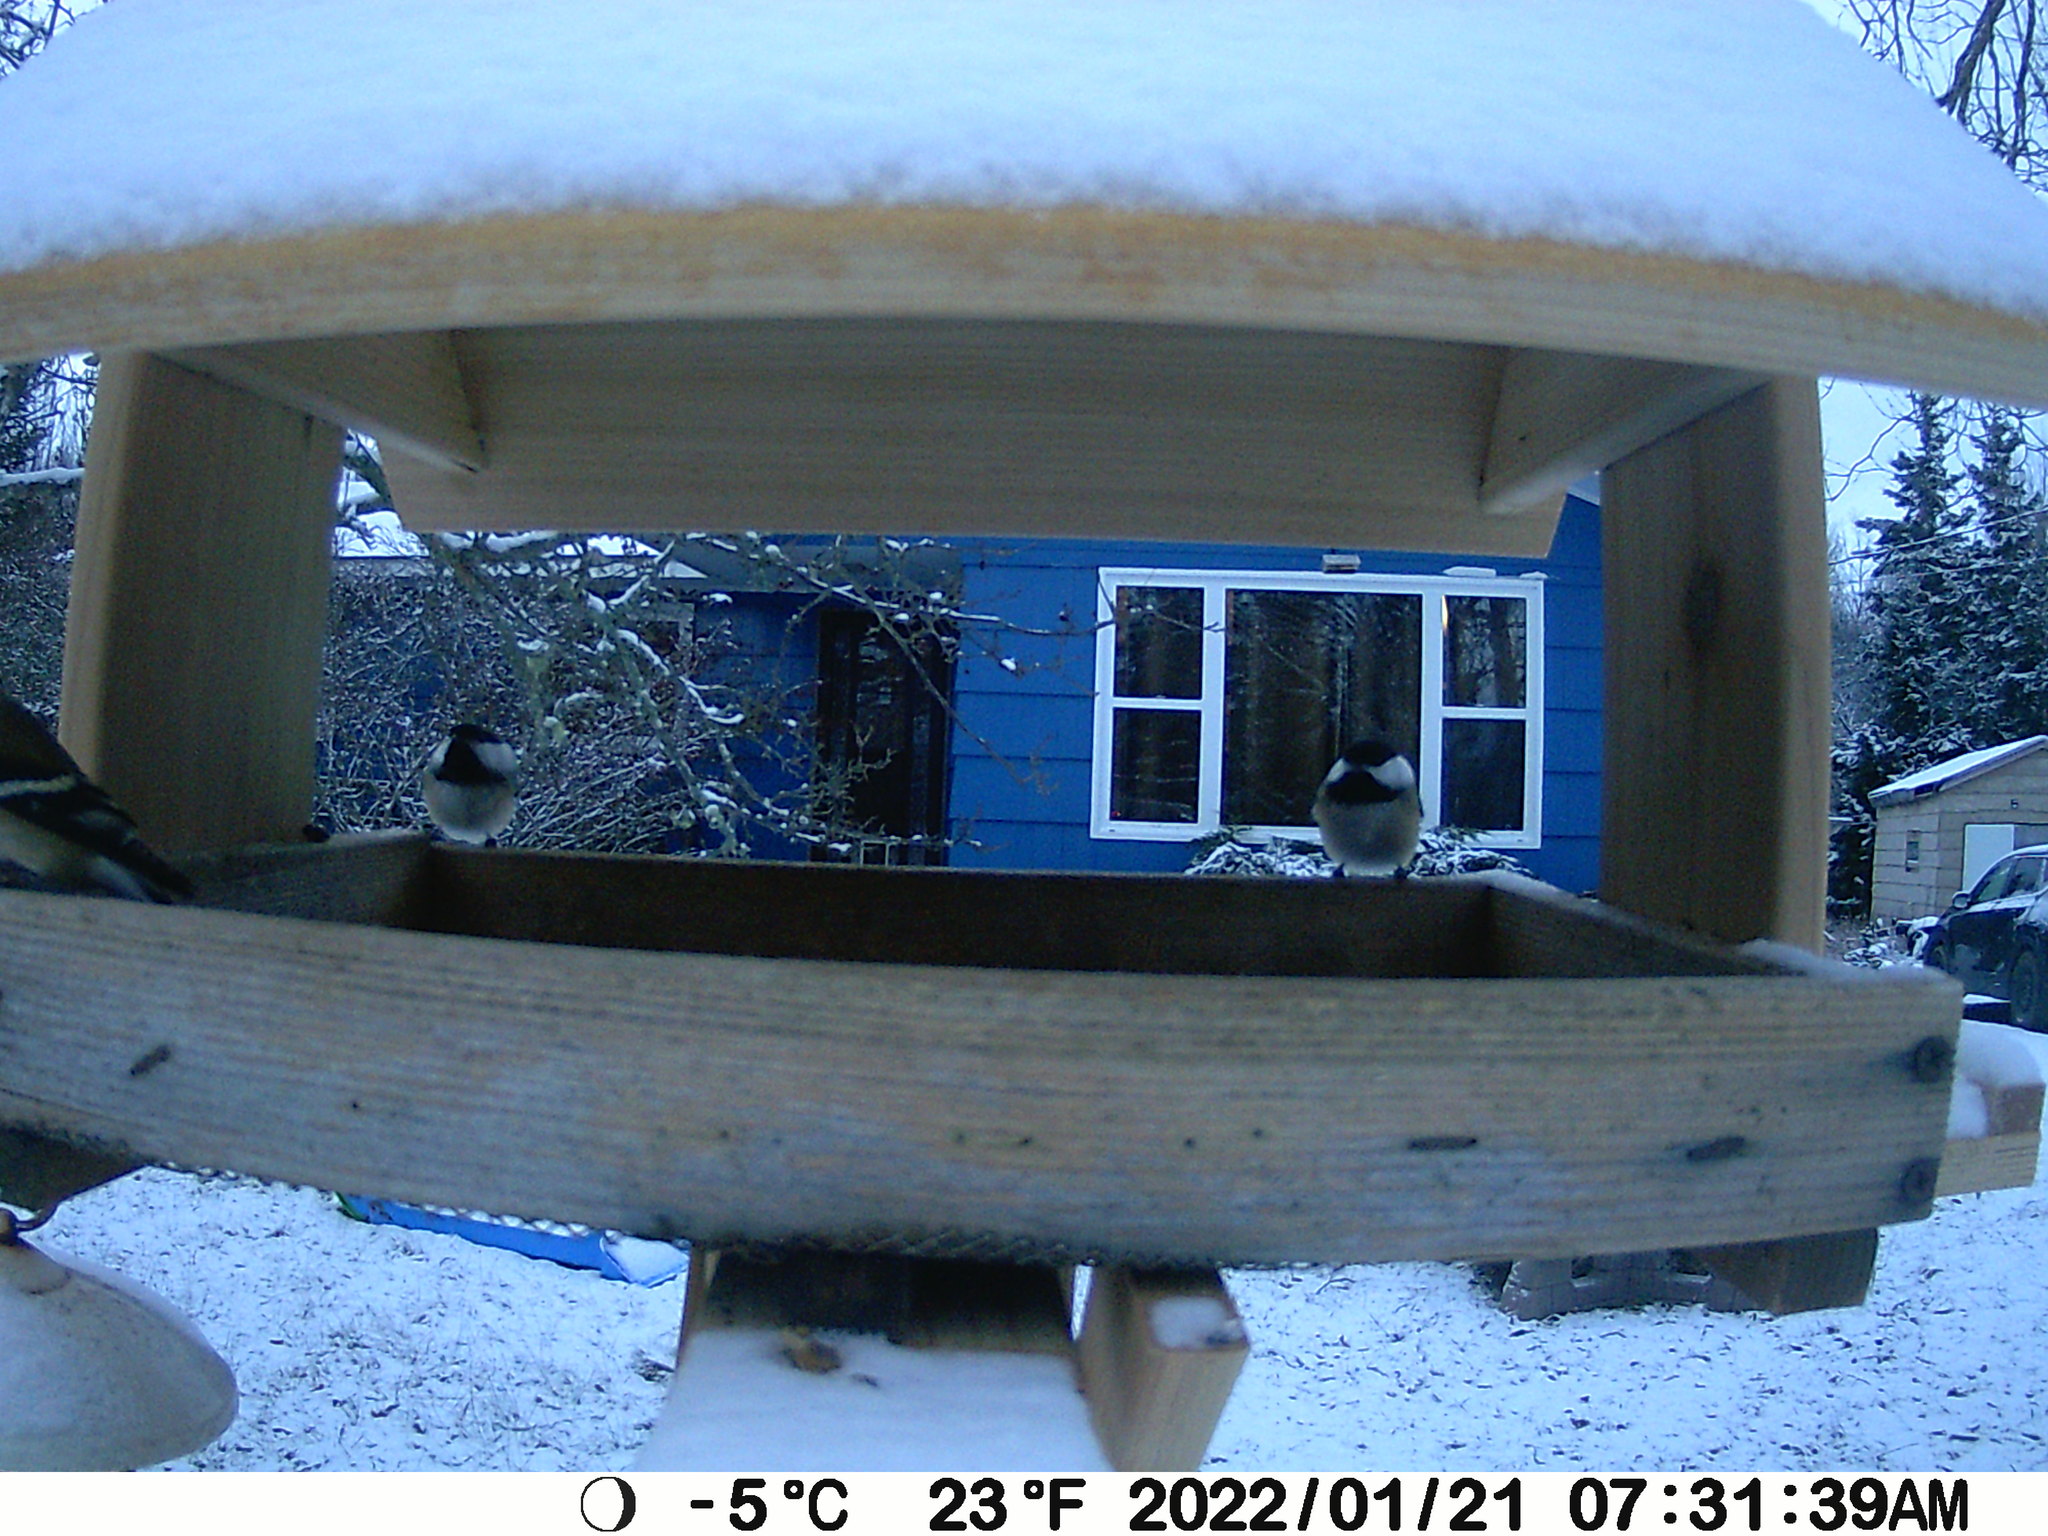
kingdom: Animalia
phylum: Chordata
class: Aves
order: Passeriformes
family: Paridae
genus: Poecile
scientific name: Poecile atricapillus
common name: Black-capped chickadee
